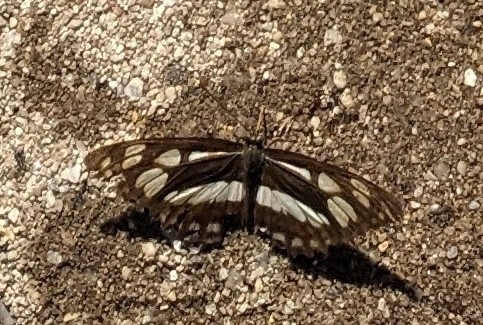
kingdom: Animalia
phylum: Arthropoda
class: Insecta
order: Lepidoptera
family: Nymphalidae
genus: Phaedyma
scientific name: Phaedyma columella
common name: Short banded sailer
